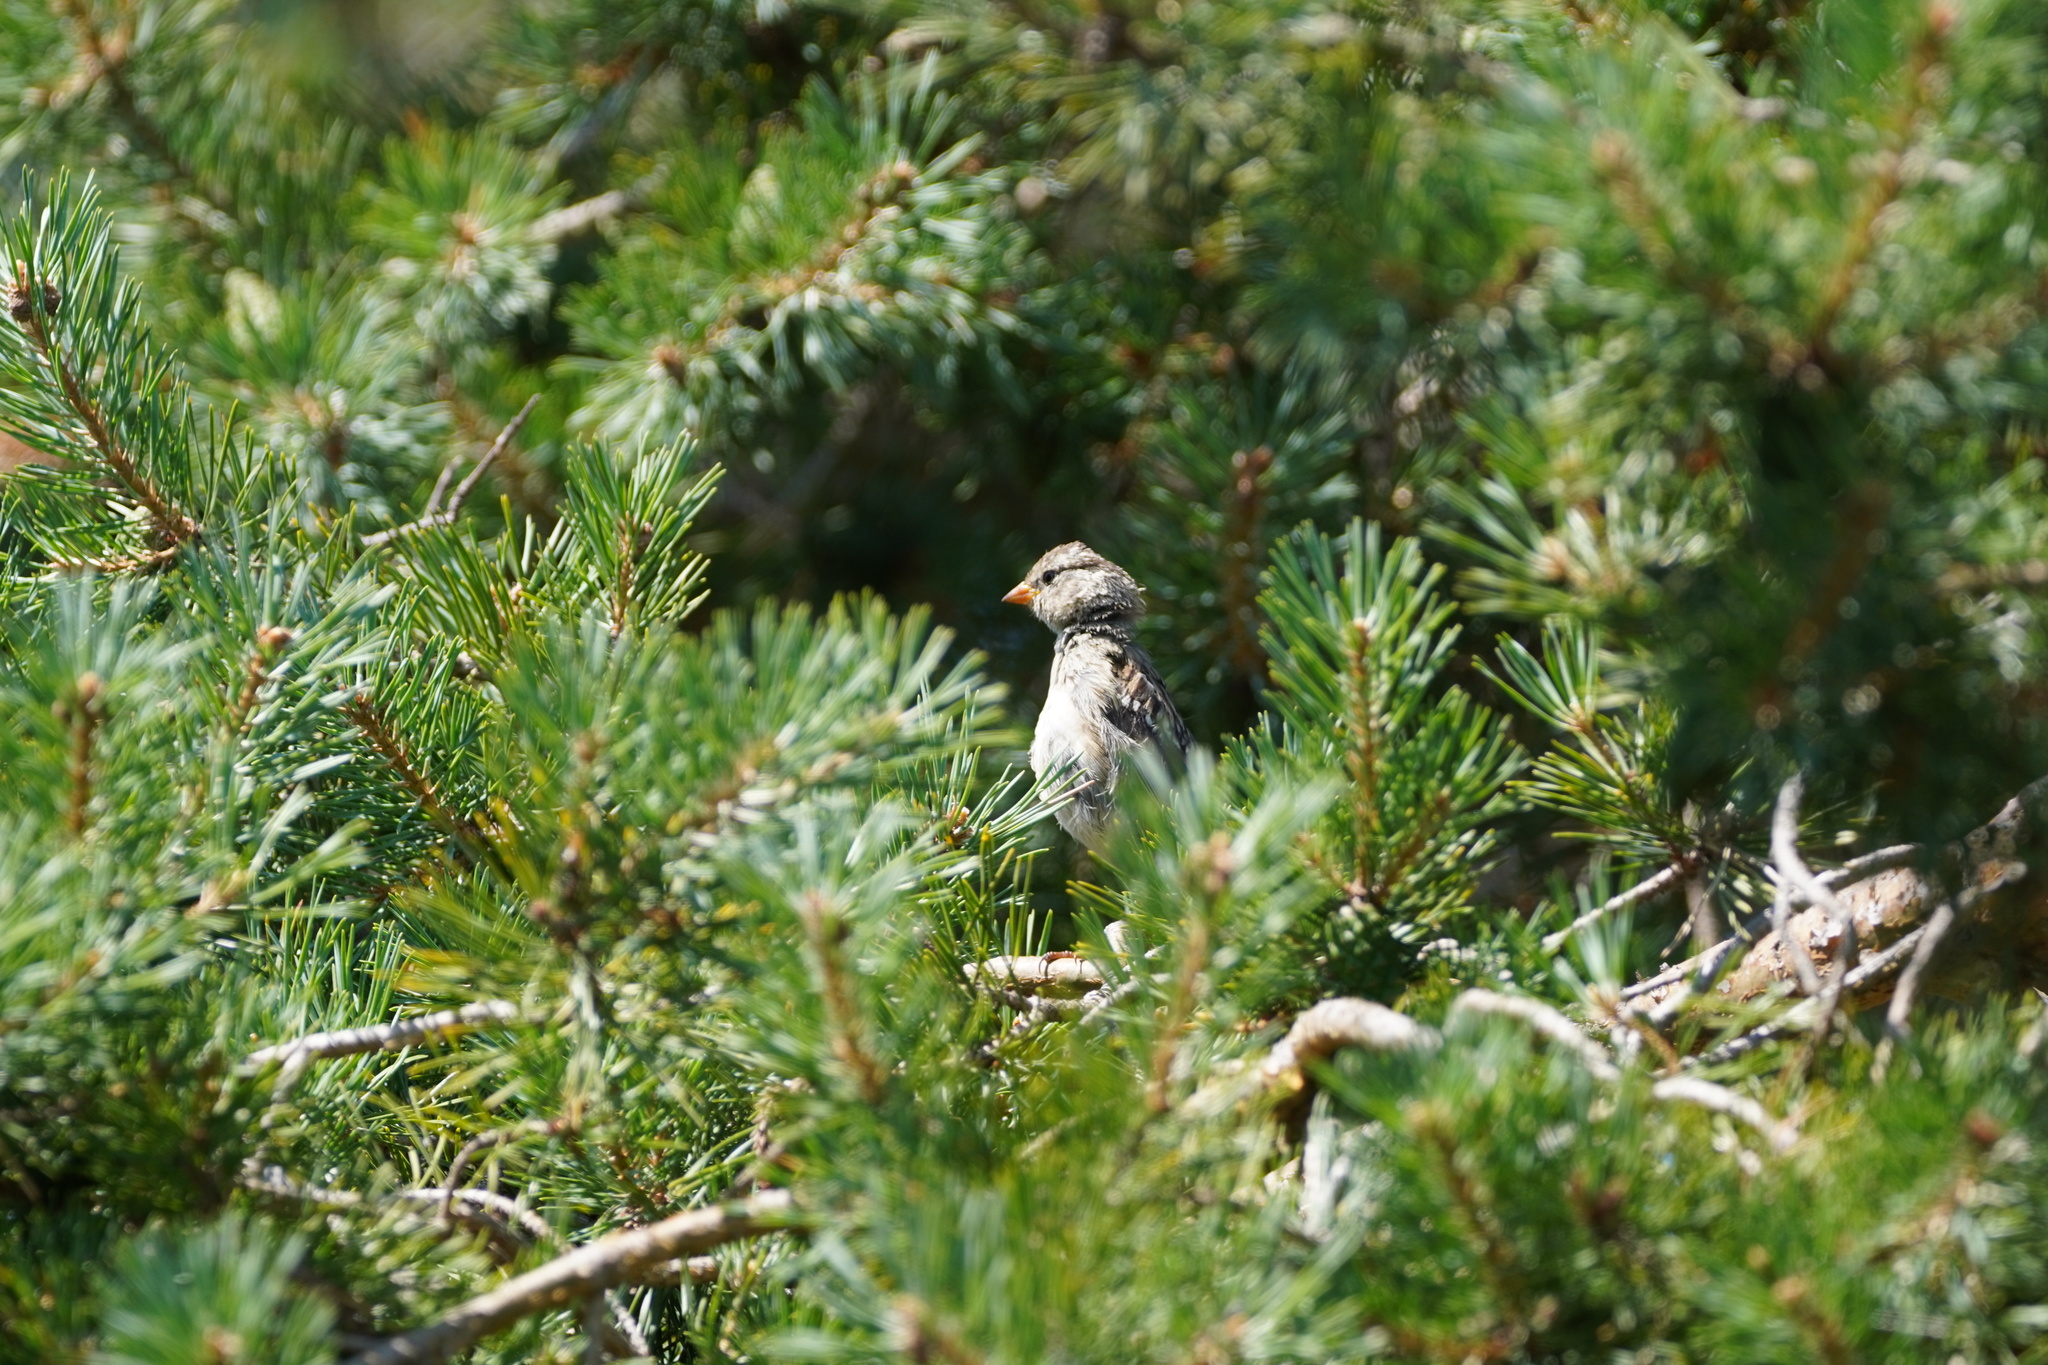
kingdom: Animalia
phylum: Chordata
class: Aves
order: Passeriformes
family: Passerellidae
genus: Zonotrichia
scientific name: Zonotrichia leucophrys
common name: White-crowned sparrow
